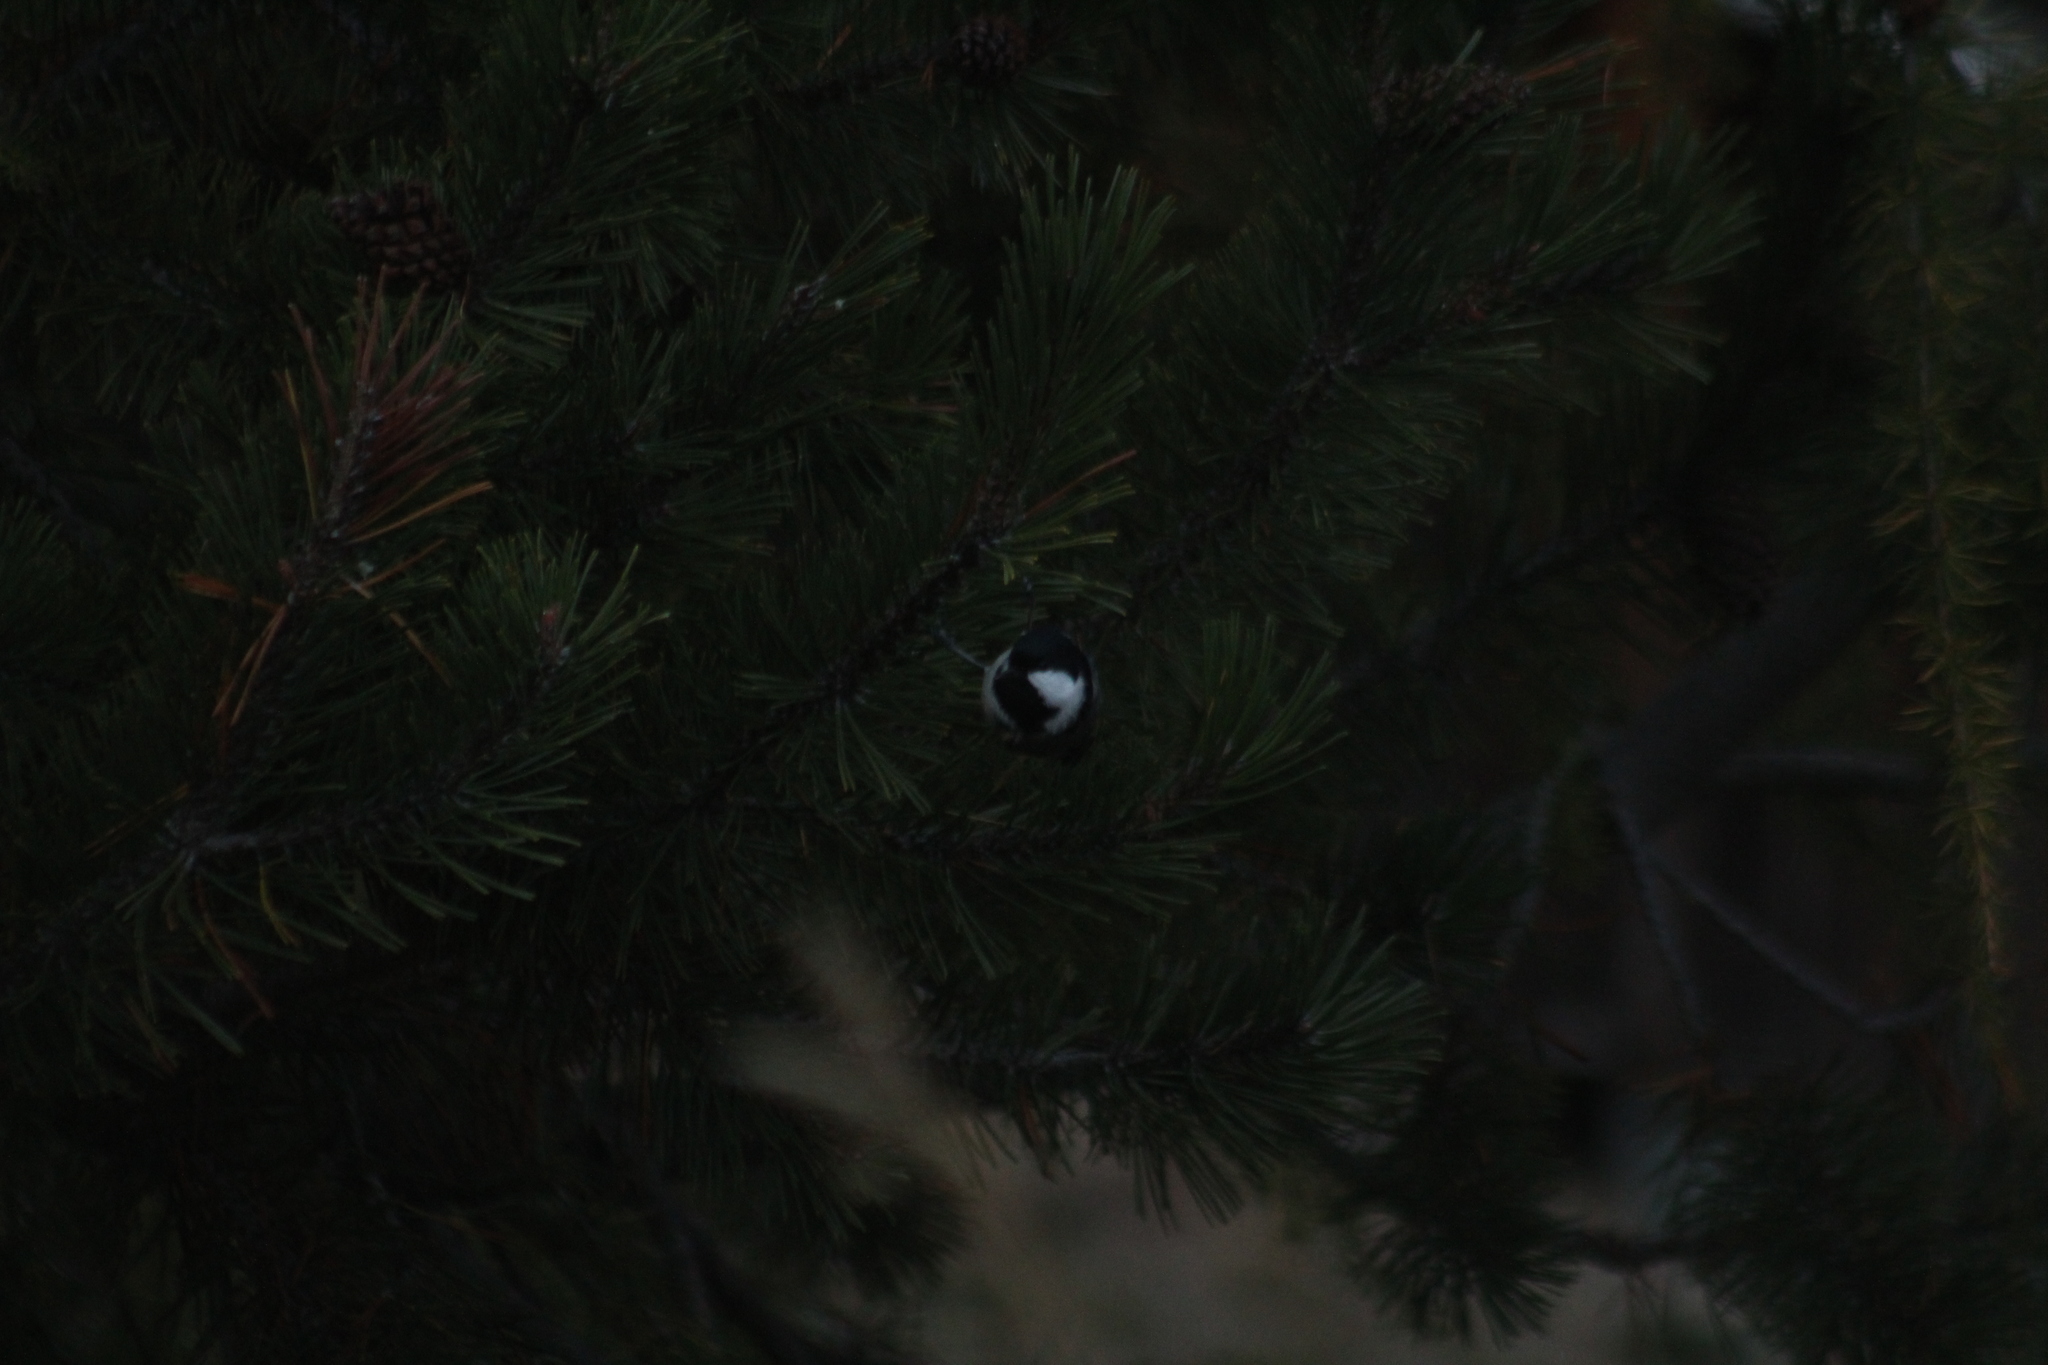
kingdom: Animalia
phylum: Chordata
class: Aves
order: Passeriformes
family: Paridae
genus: Periparus
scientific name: Periparus ater
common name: Coal tit
